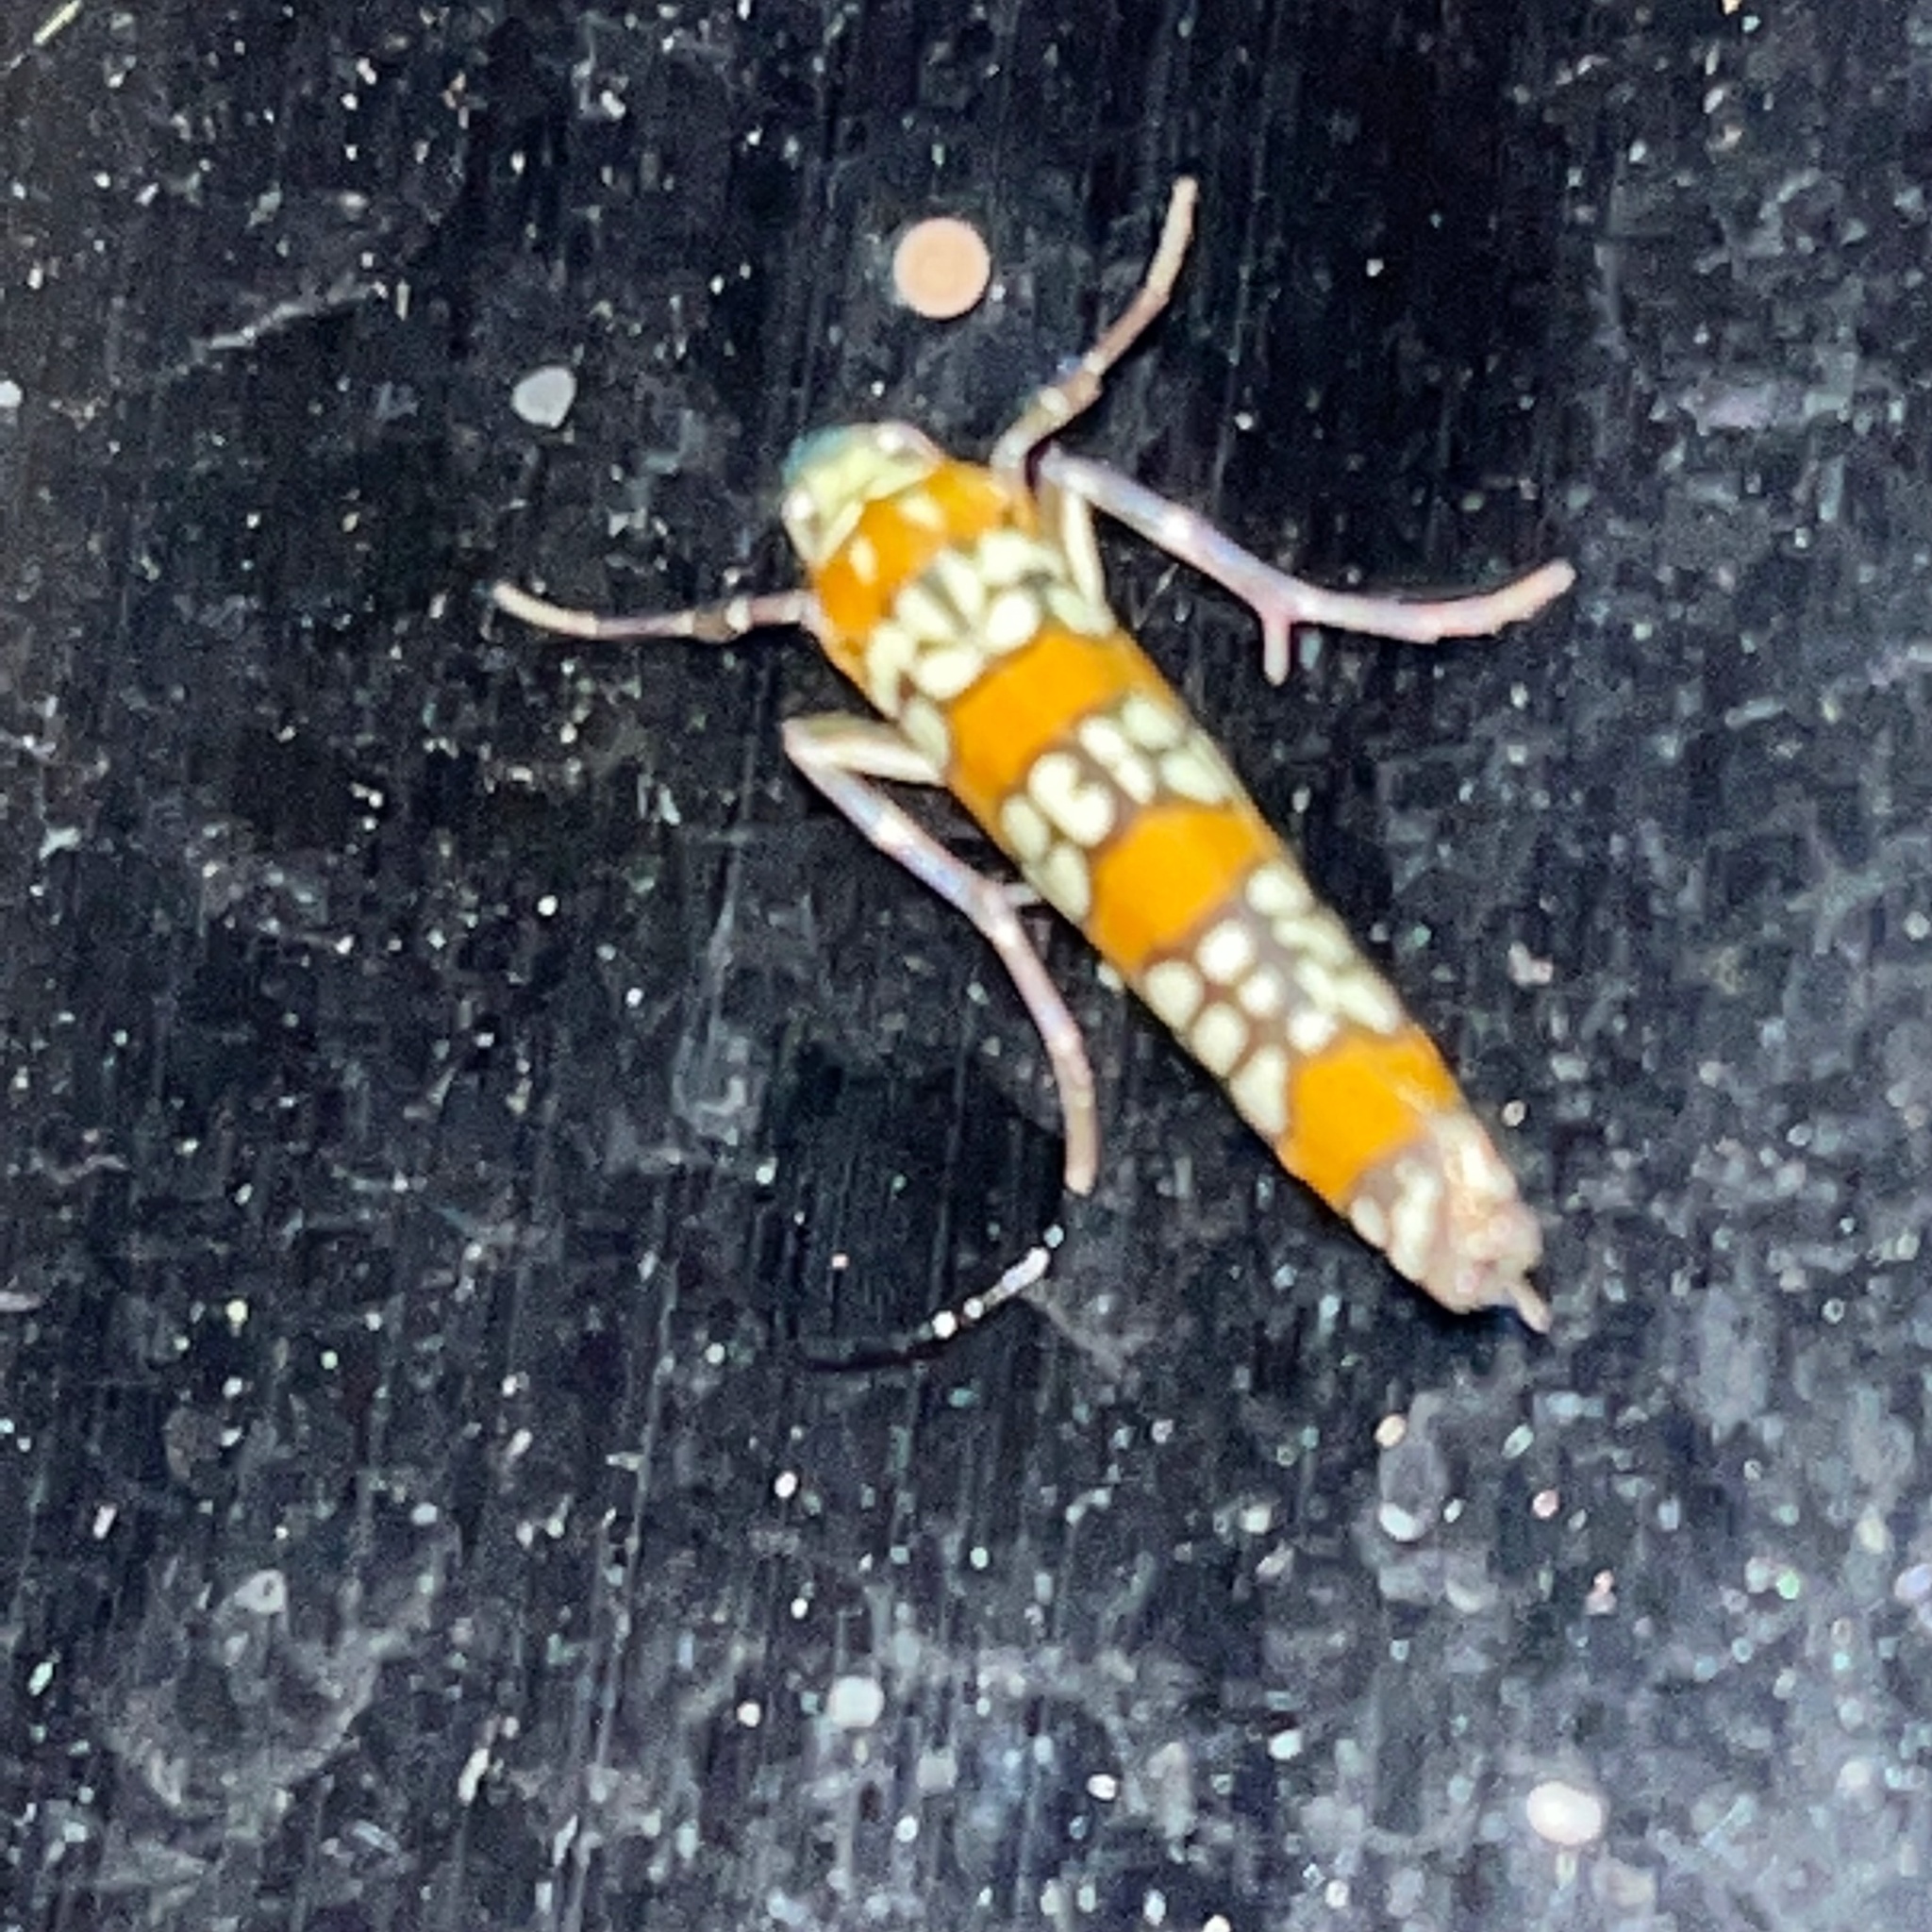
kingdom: Animalia
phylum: Arthropoda
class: Insecta
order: Lepidoptera
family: Attevidae
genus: Atteva
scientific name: Atteva punctella
